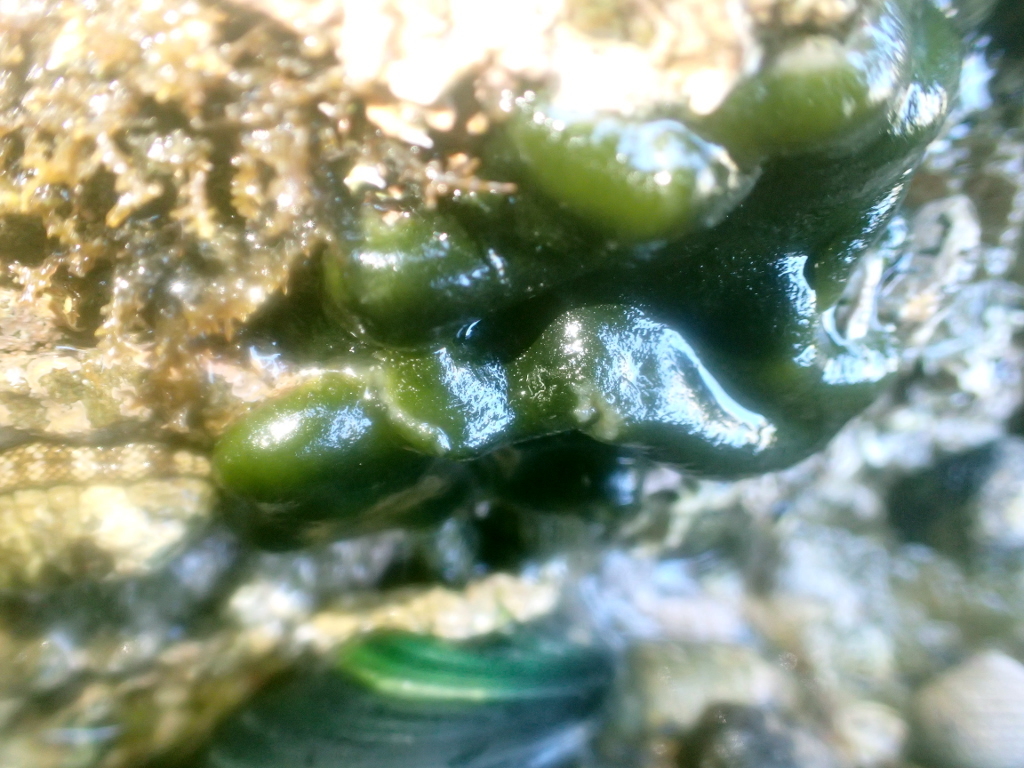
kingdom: Plantae
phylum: Chlorophyta
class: Ulvophyceae
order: Bryopsidales
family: Codiaceae
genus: Codium
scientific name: Codium convolutum
